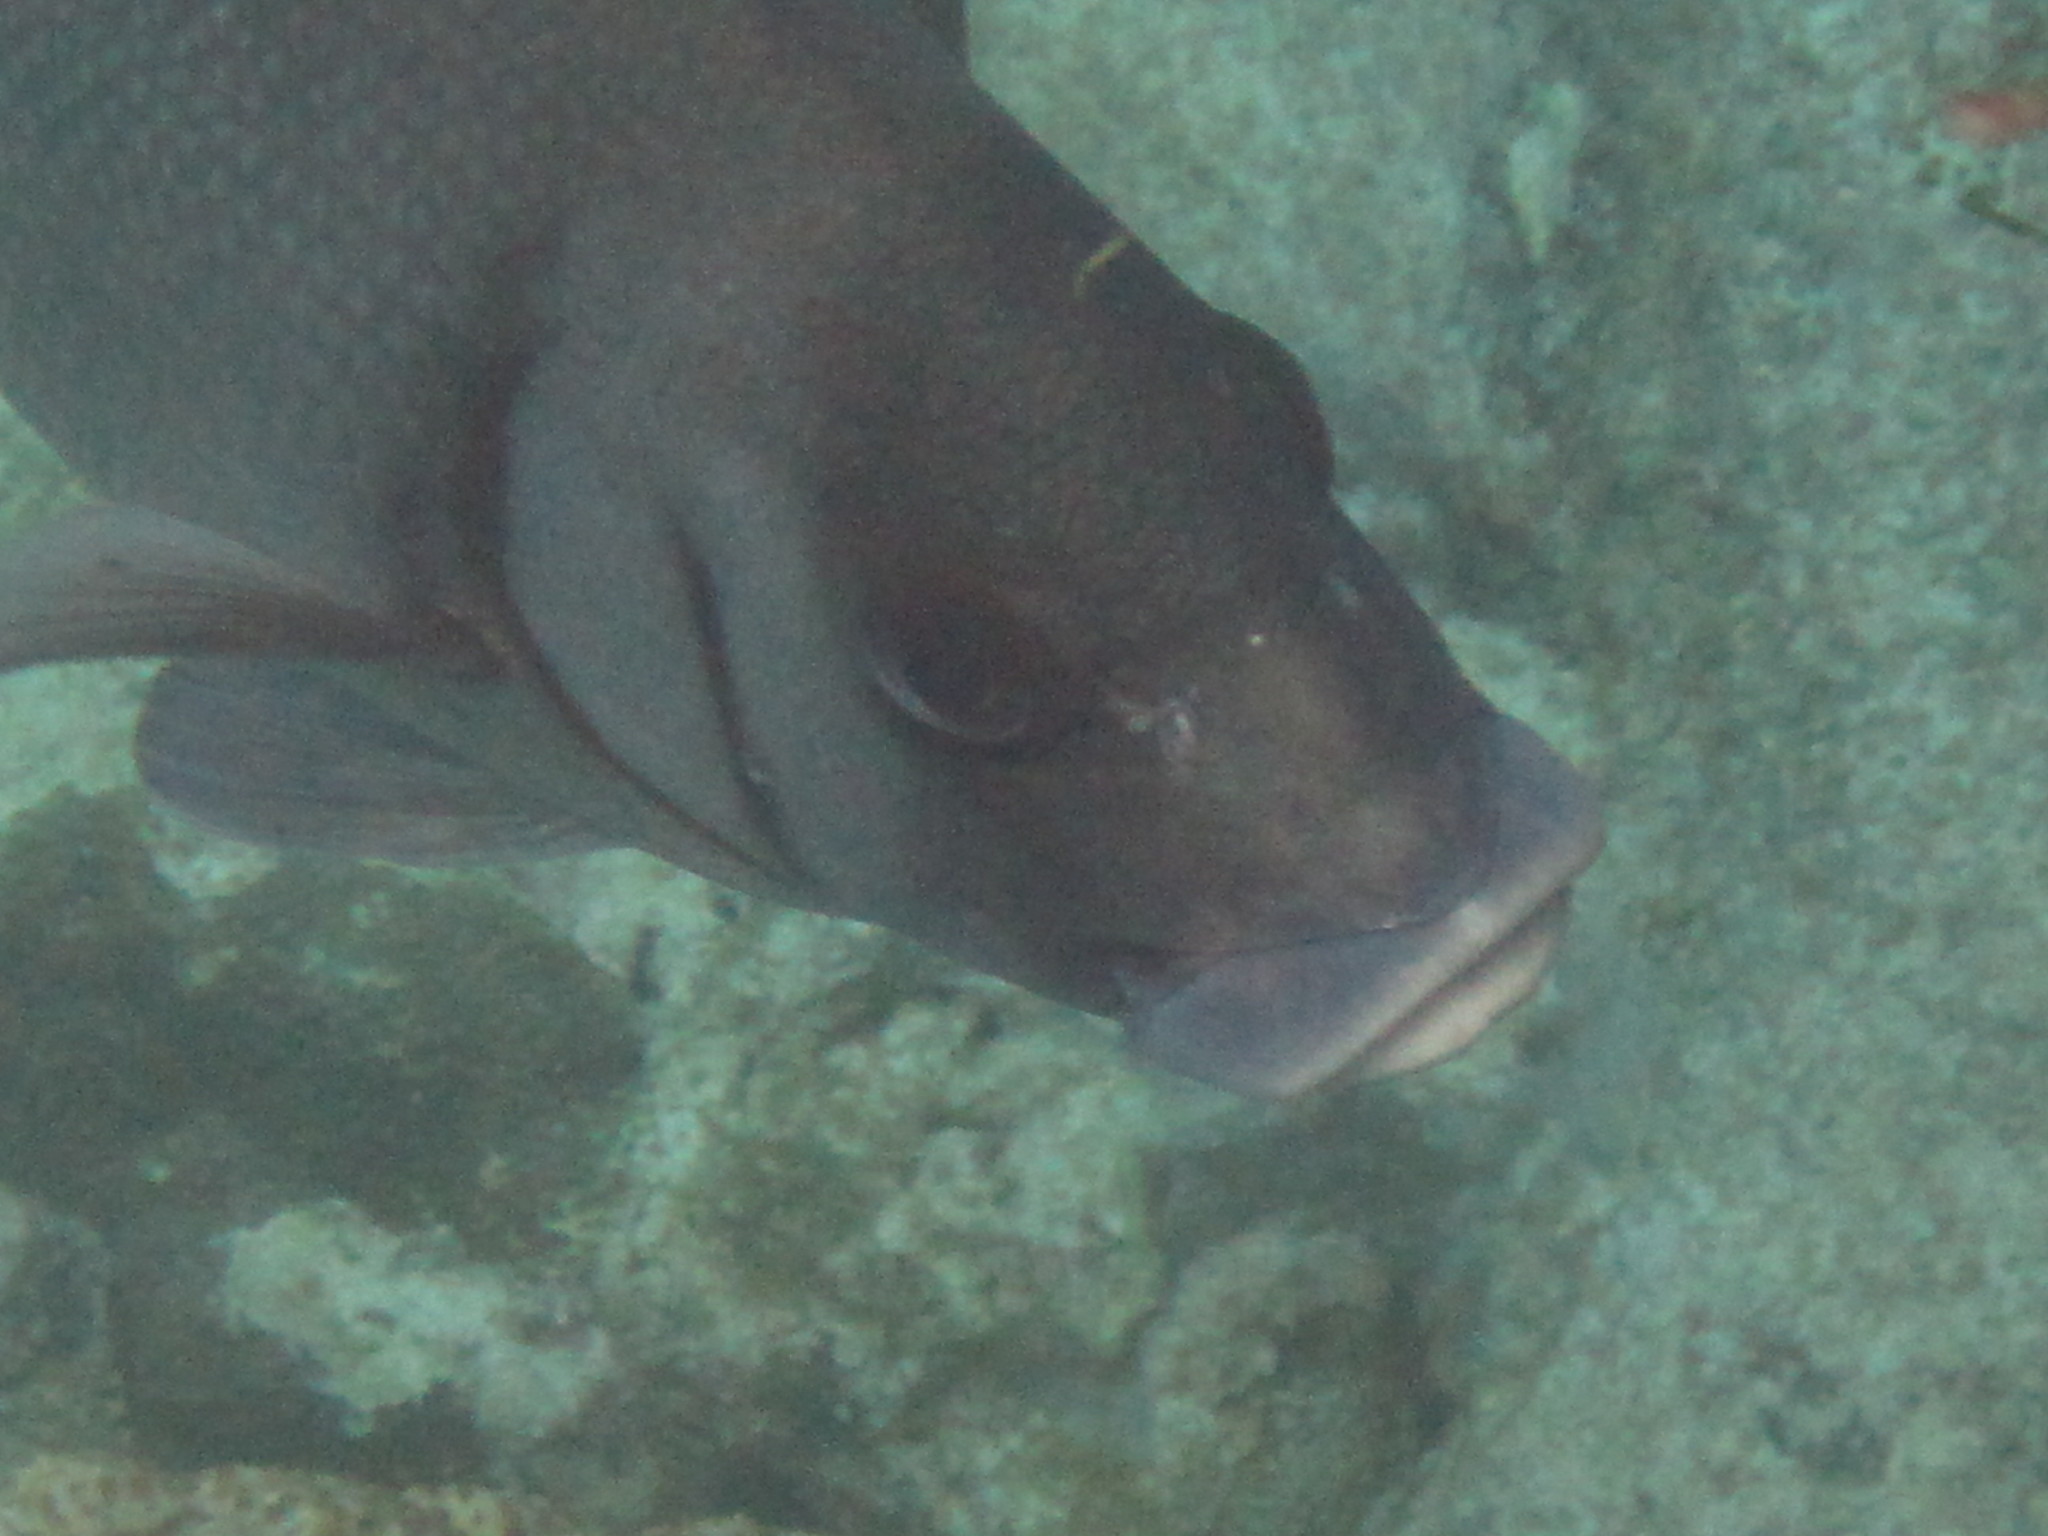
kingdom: Animalia
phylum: Chordata
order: Perciformes
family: Haemulidae
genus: Plectorhinchus
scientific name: Plectorhinchus gibbosus
